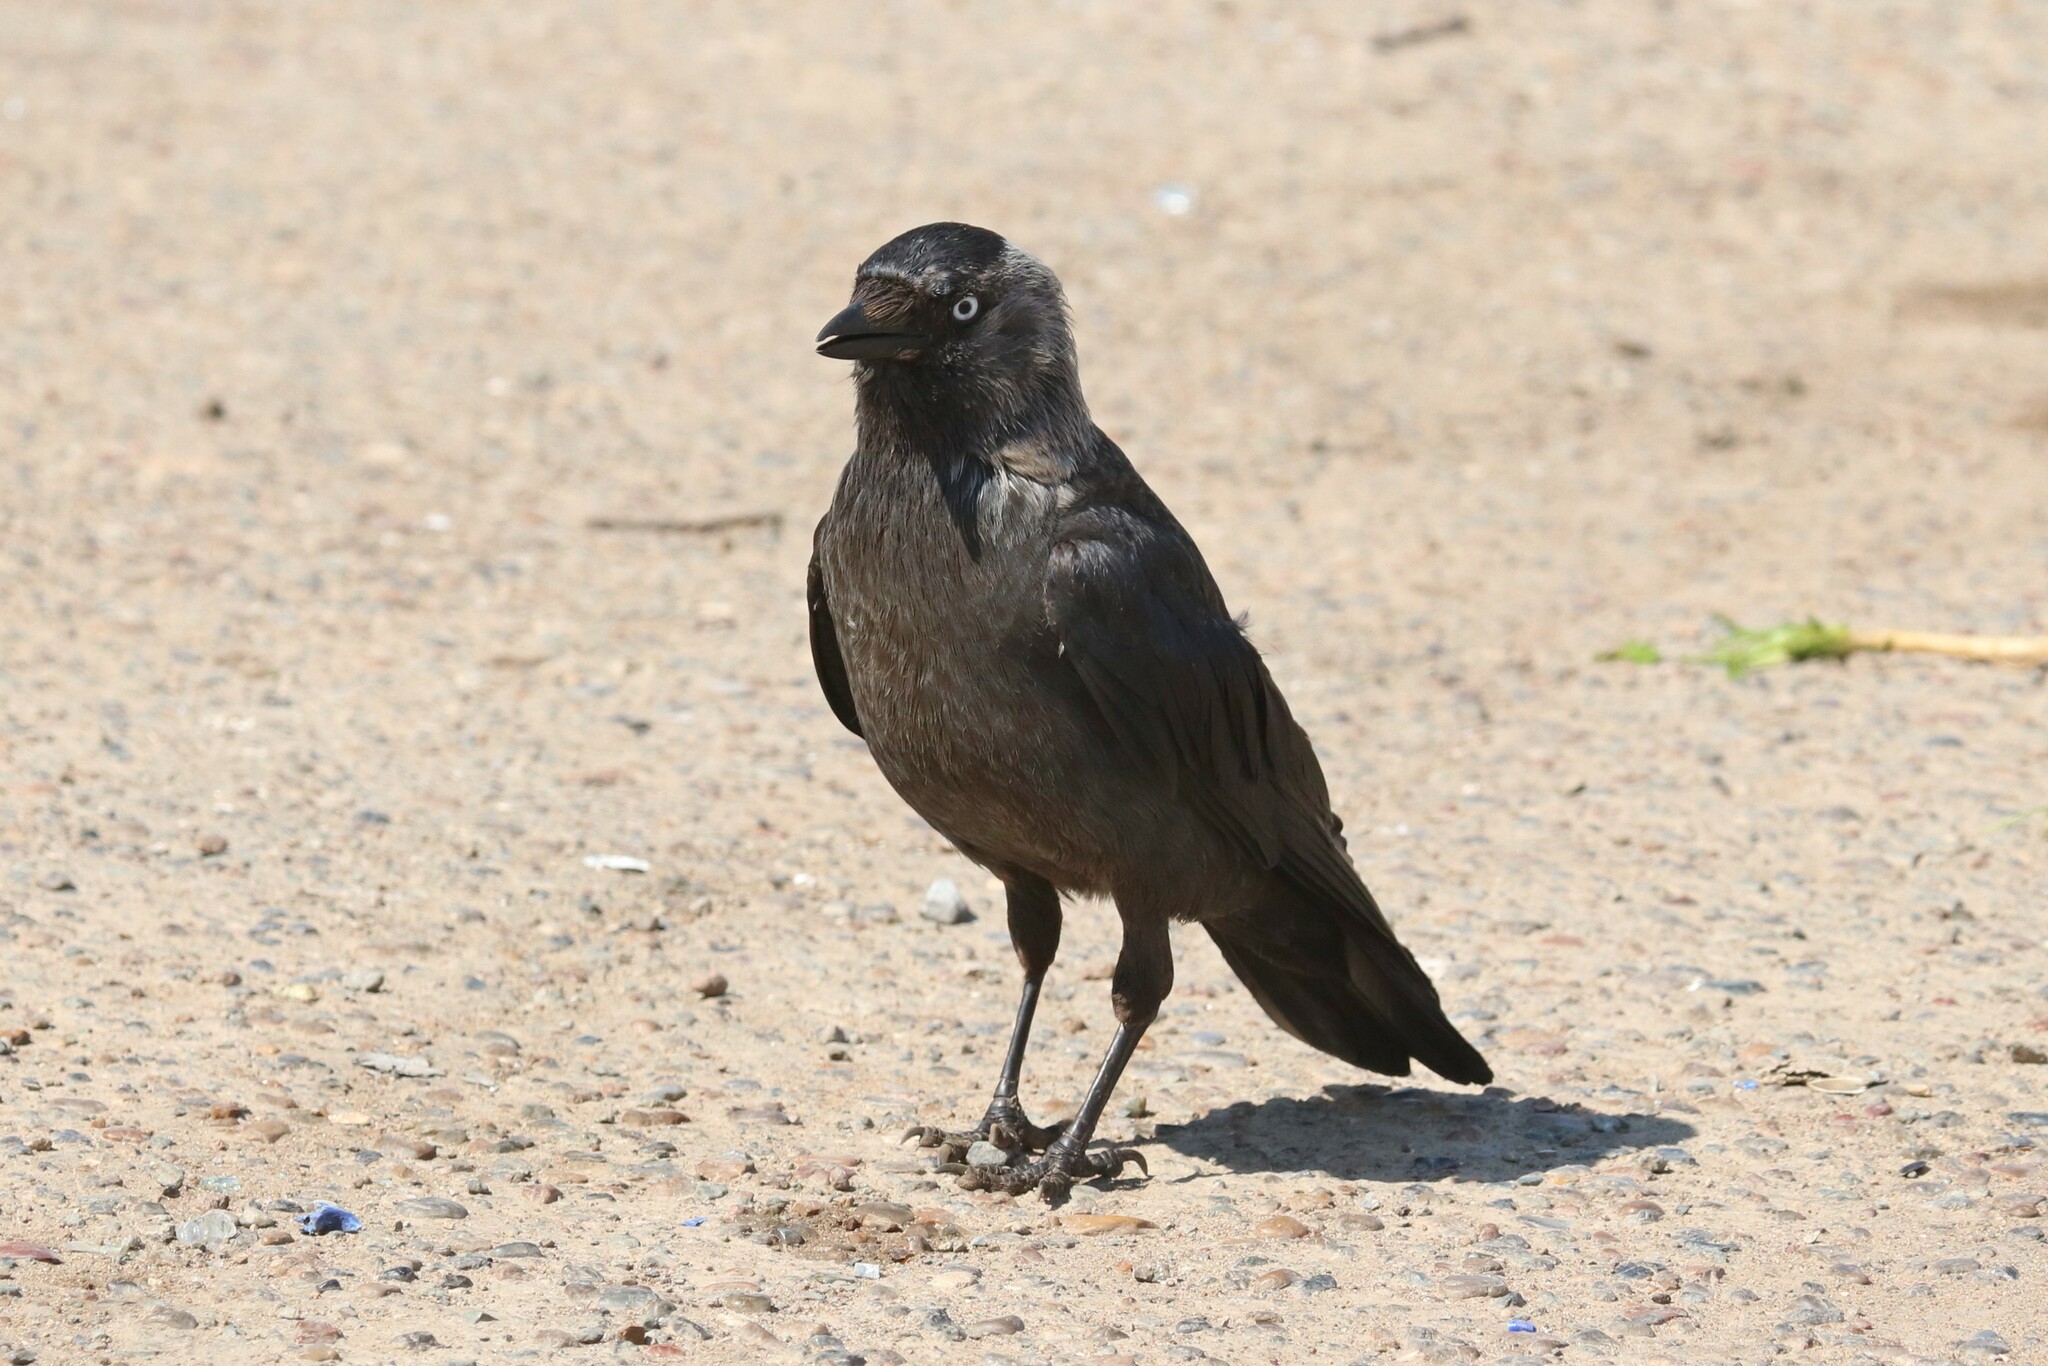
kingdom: Animalia
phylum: Chordata
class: Aves
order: Passeriformes
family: Corvidae
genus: Coloeus
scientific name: Coloeus monedula
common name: Western jackdaw
